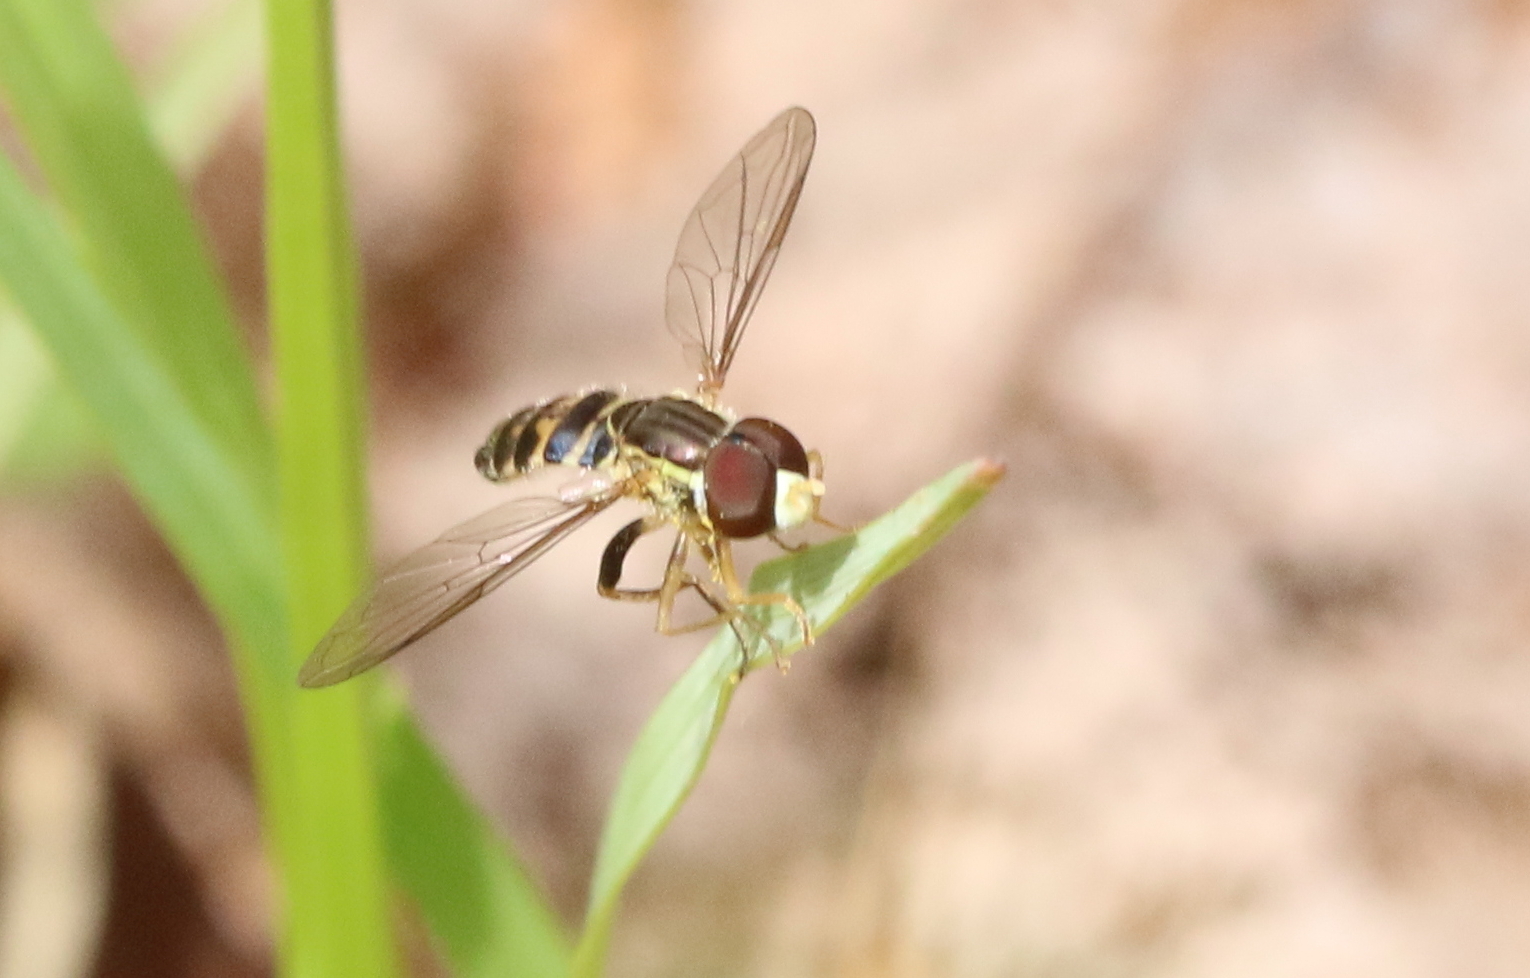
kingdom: Animalia
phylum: Arthropoda
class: Insecta
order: Diptera
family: Syrphidae
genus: Toxomerus
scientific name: Toxomerus geminatus
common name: Eastern calligrapher
